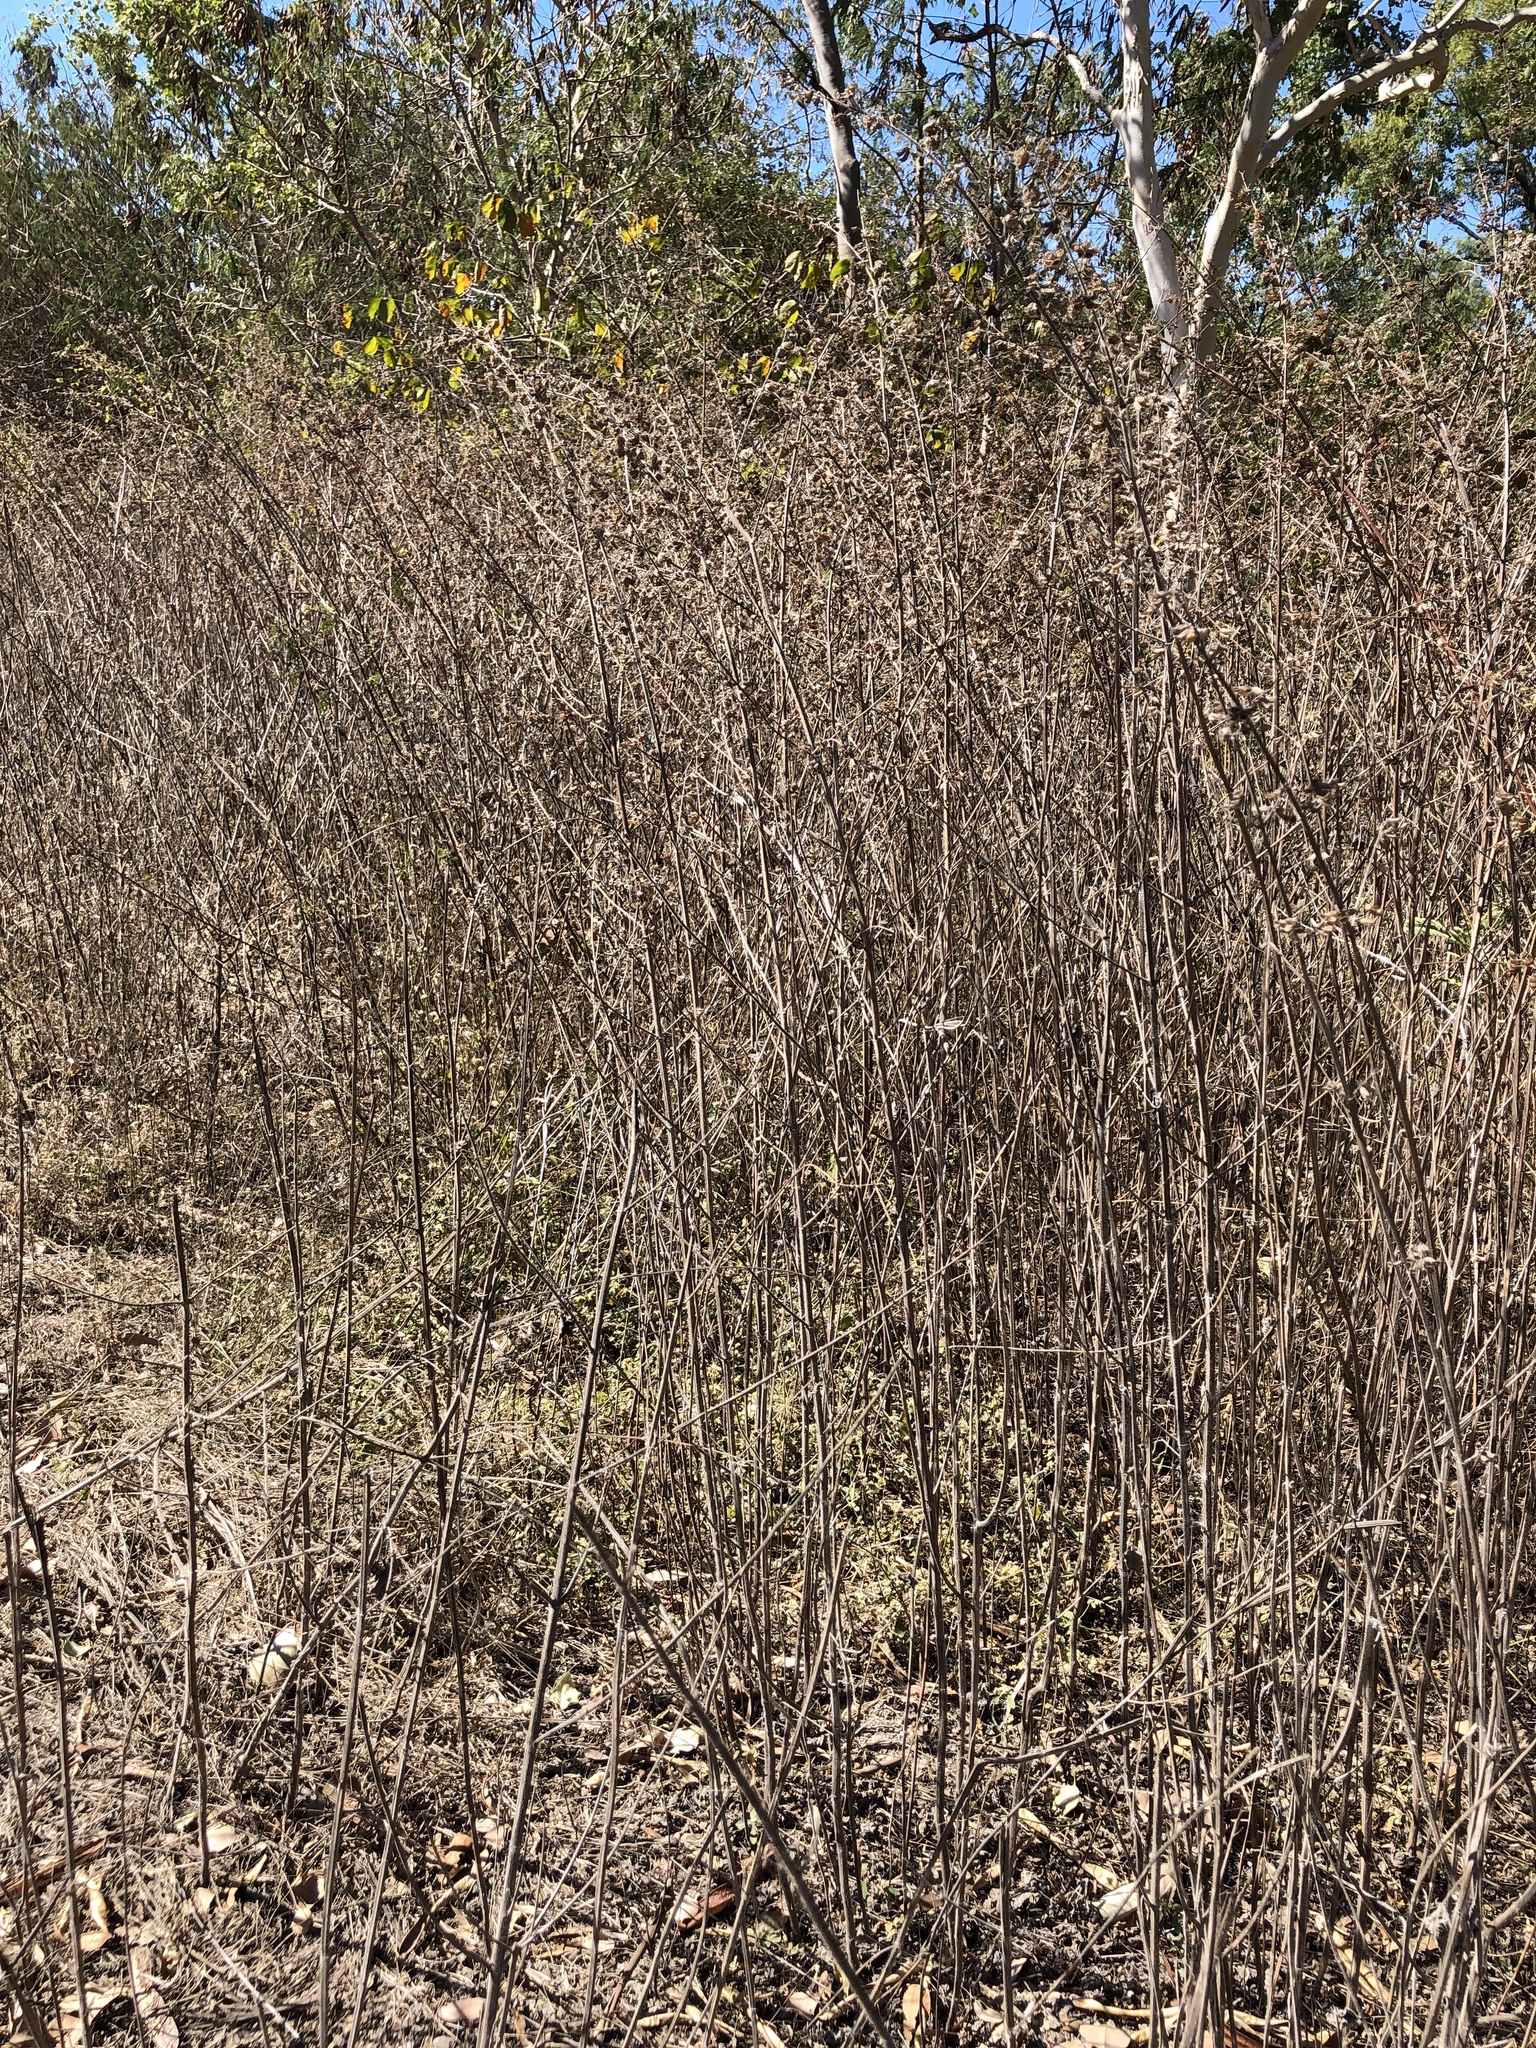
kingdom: Plantae
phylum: Tracheophyta
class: Magnoliopsida
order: Lamiales
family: Lamiaceae
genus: Mesosphaerum
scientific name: Mesosphaerum suaveolens
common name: Pignut
